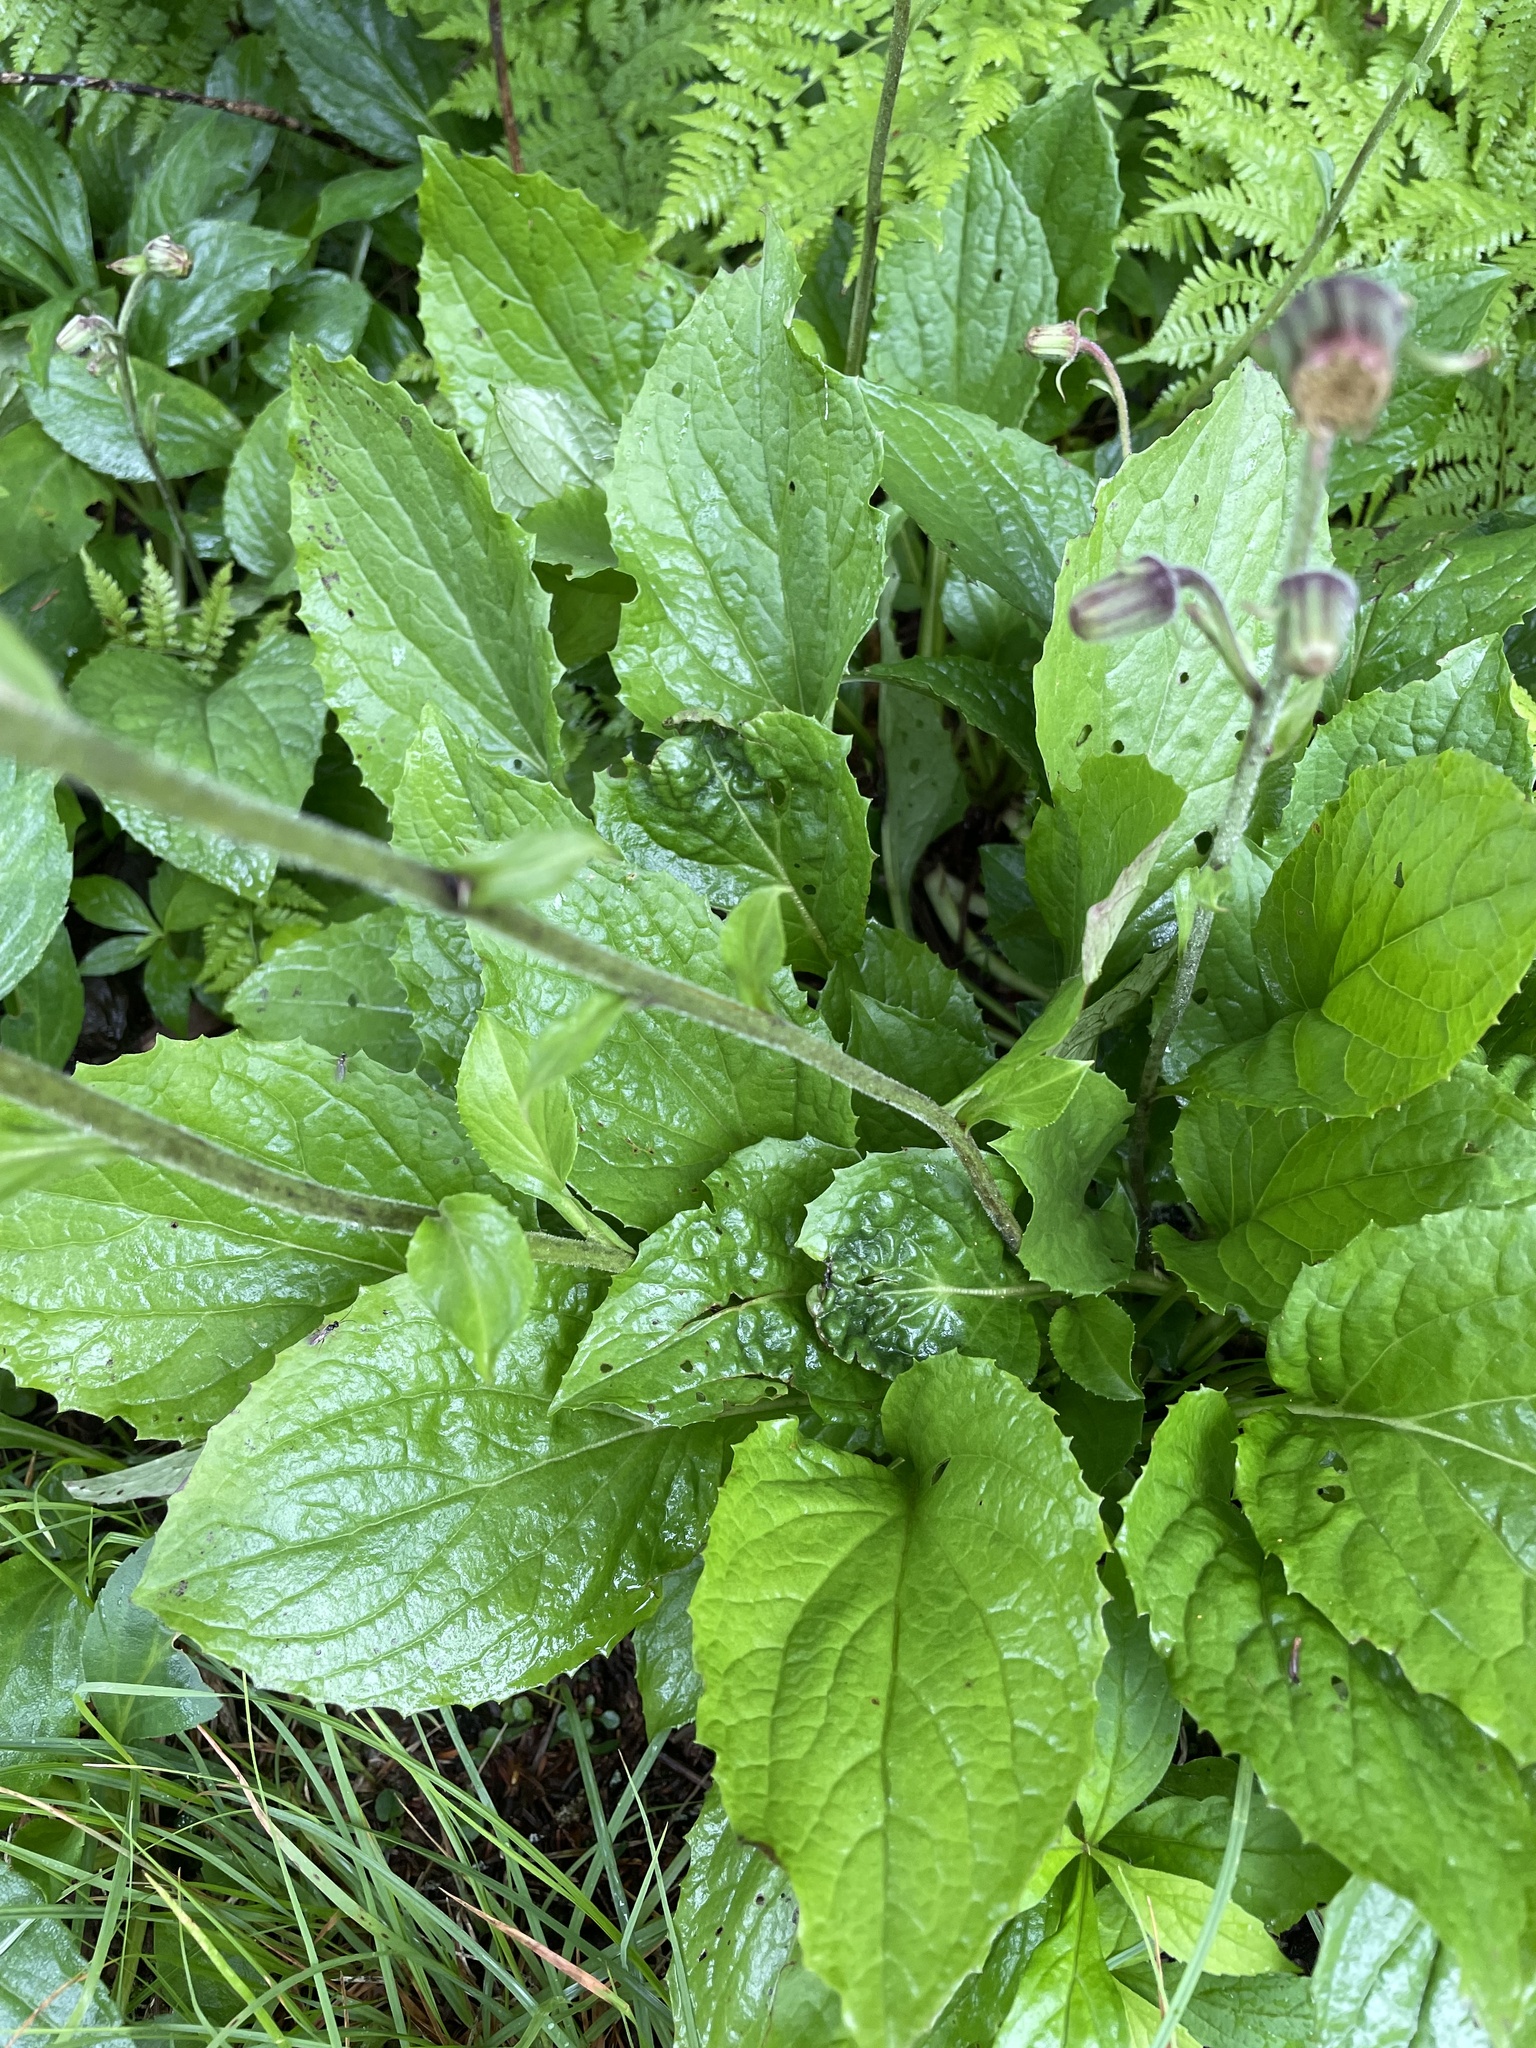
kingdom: Plantae
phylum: Tracheophyta
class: Magnoliopsida
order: Asterales
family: Asteraceae
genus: Rugelia
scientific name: Rugelia nudicaulis
